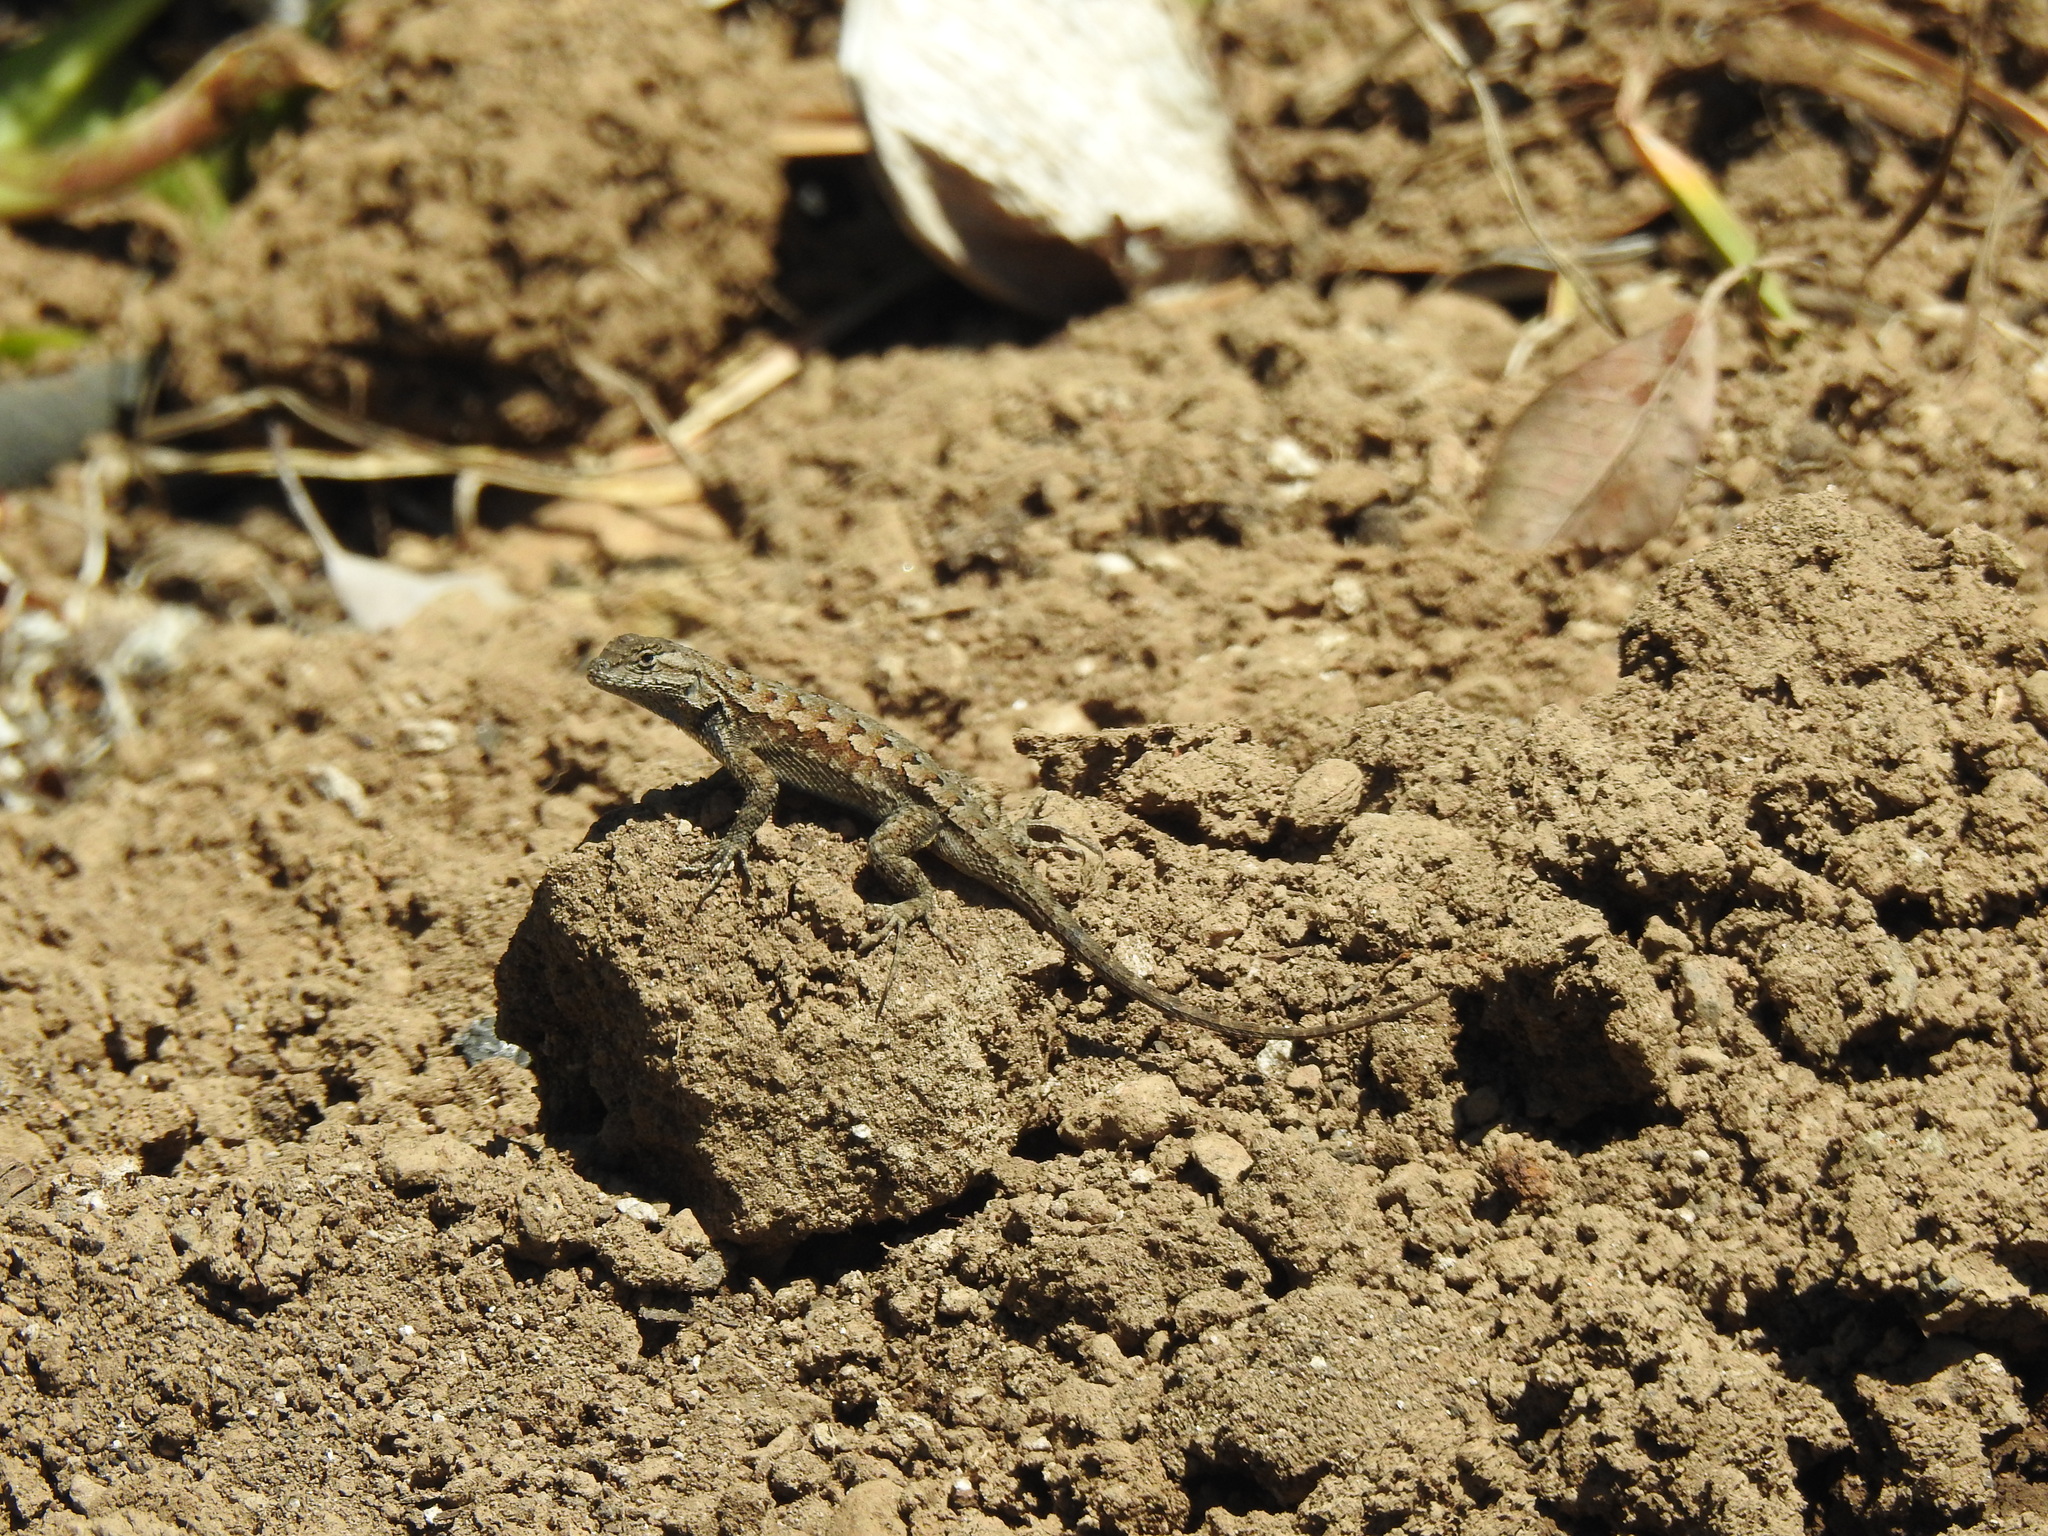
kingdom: Animalia
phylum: Chordata
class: Squamata
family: Phrynosomatidae
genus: Sceloporus
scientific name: Sceloporus occidentalis
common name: Western fence lizard
